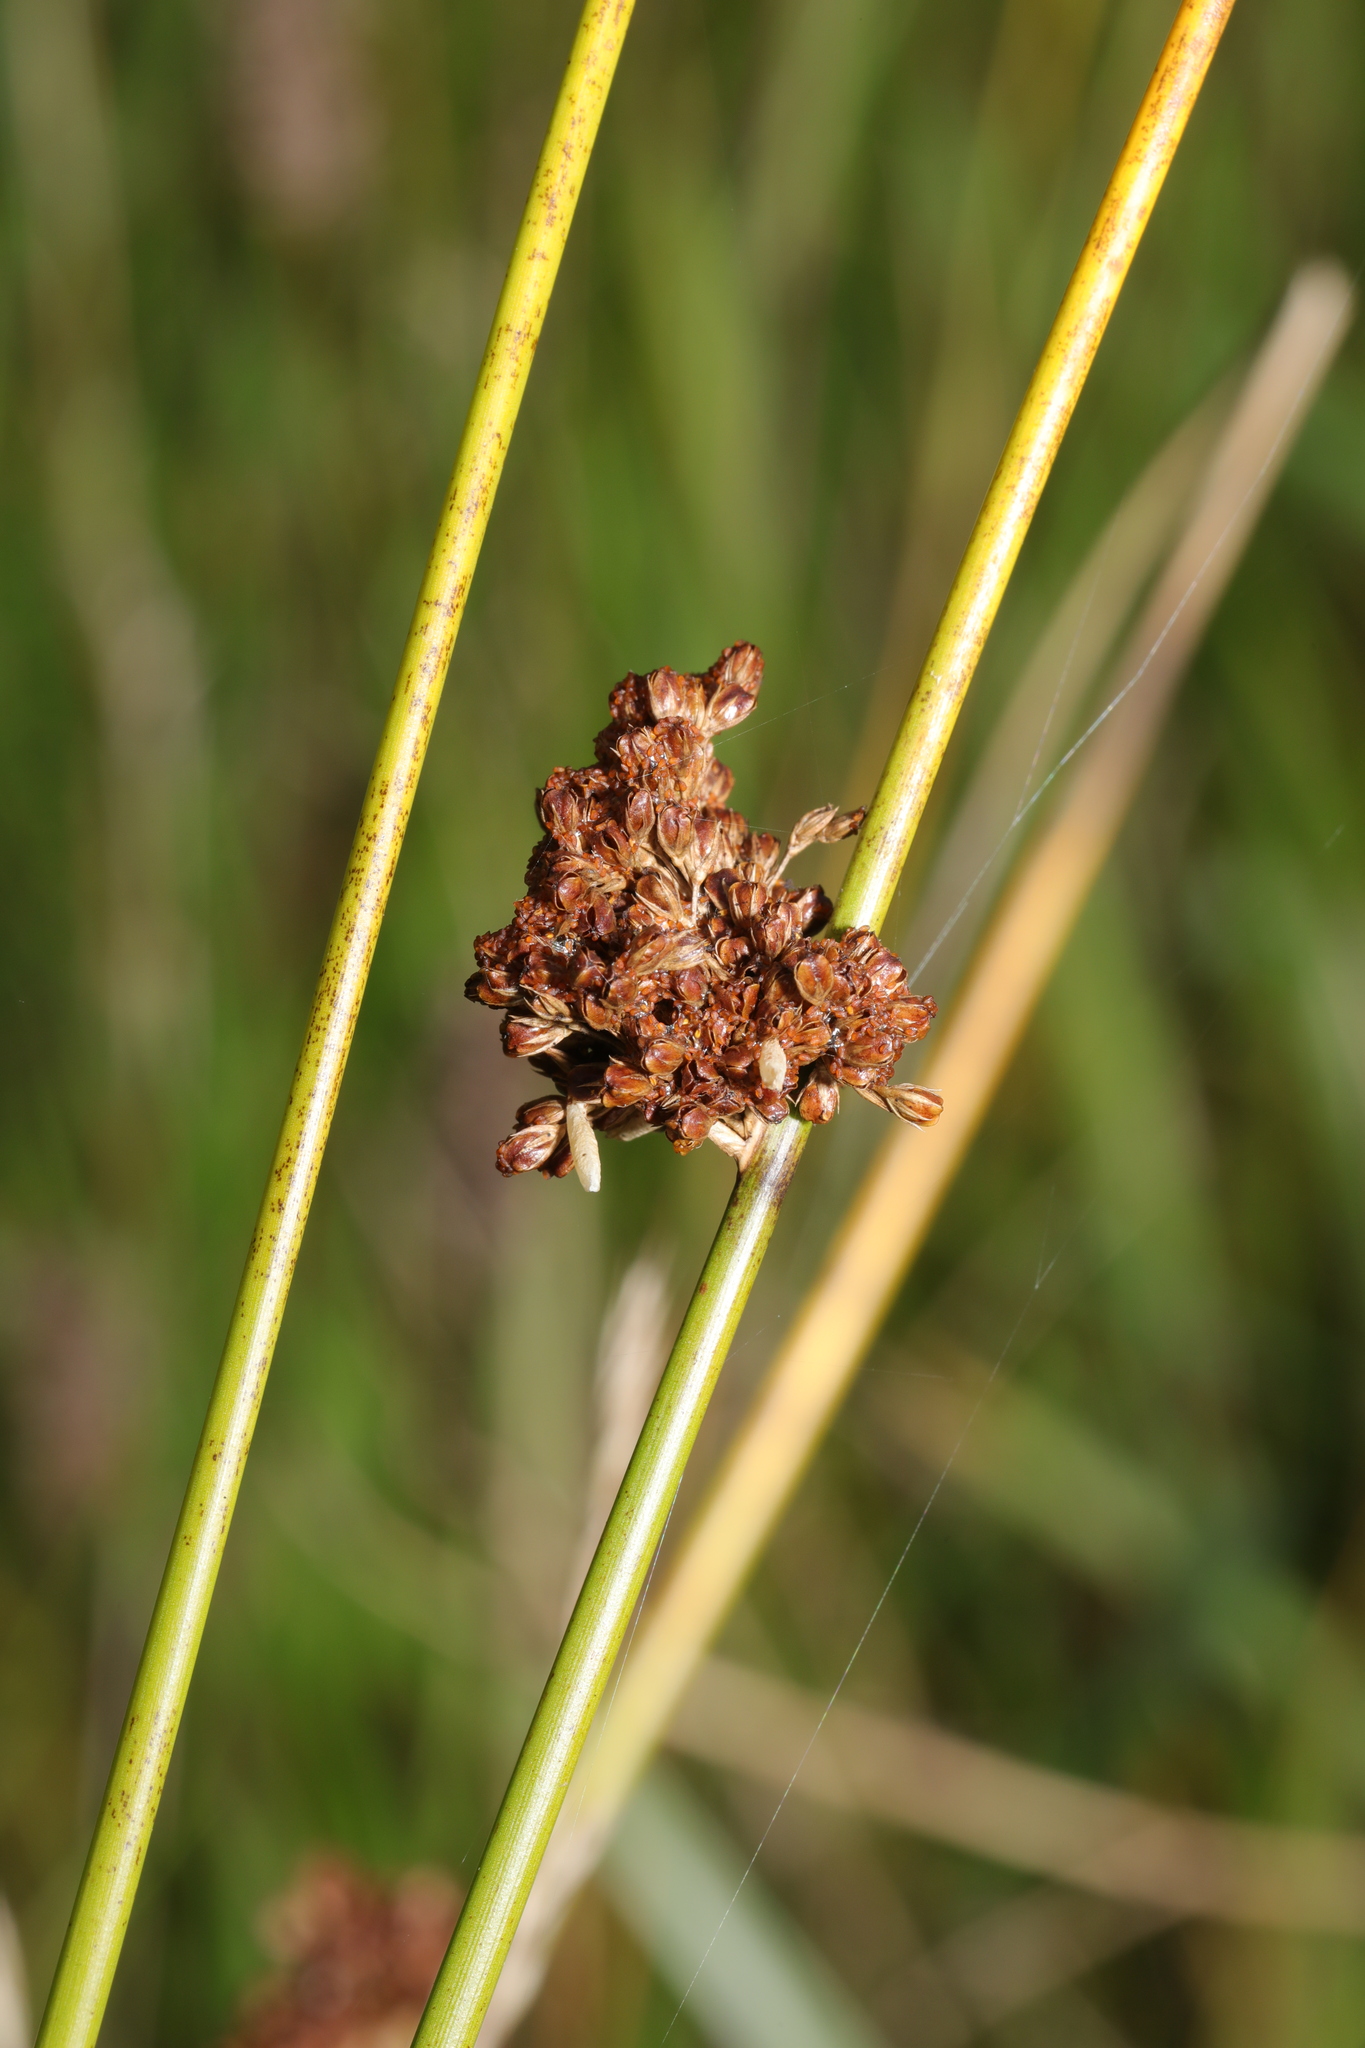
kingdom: Plantae
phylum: Tracheophyta
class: Liliopsida
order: Poales
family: Juncaceae
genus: Juncus
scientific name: Juncus effusus
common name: Soft rush
